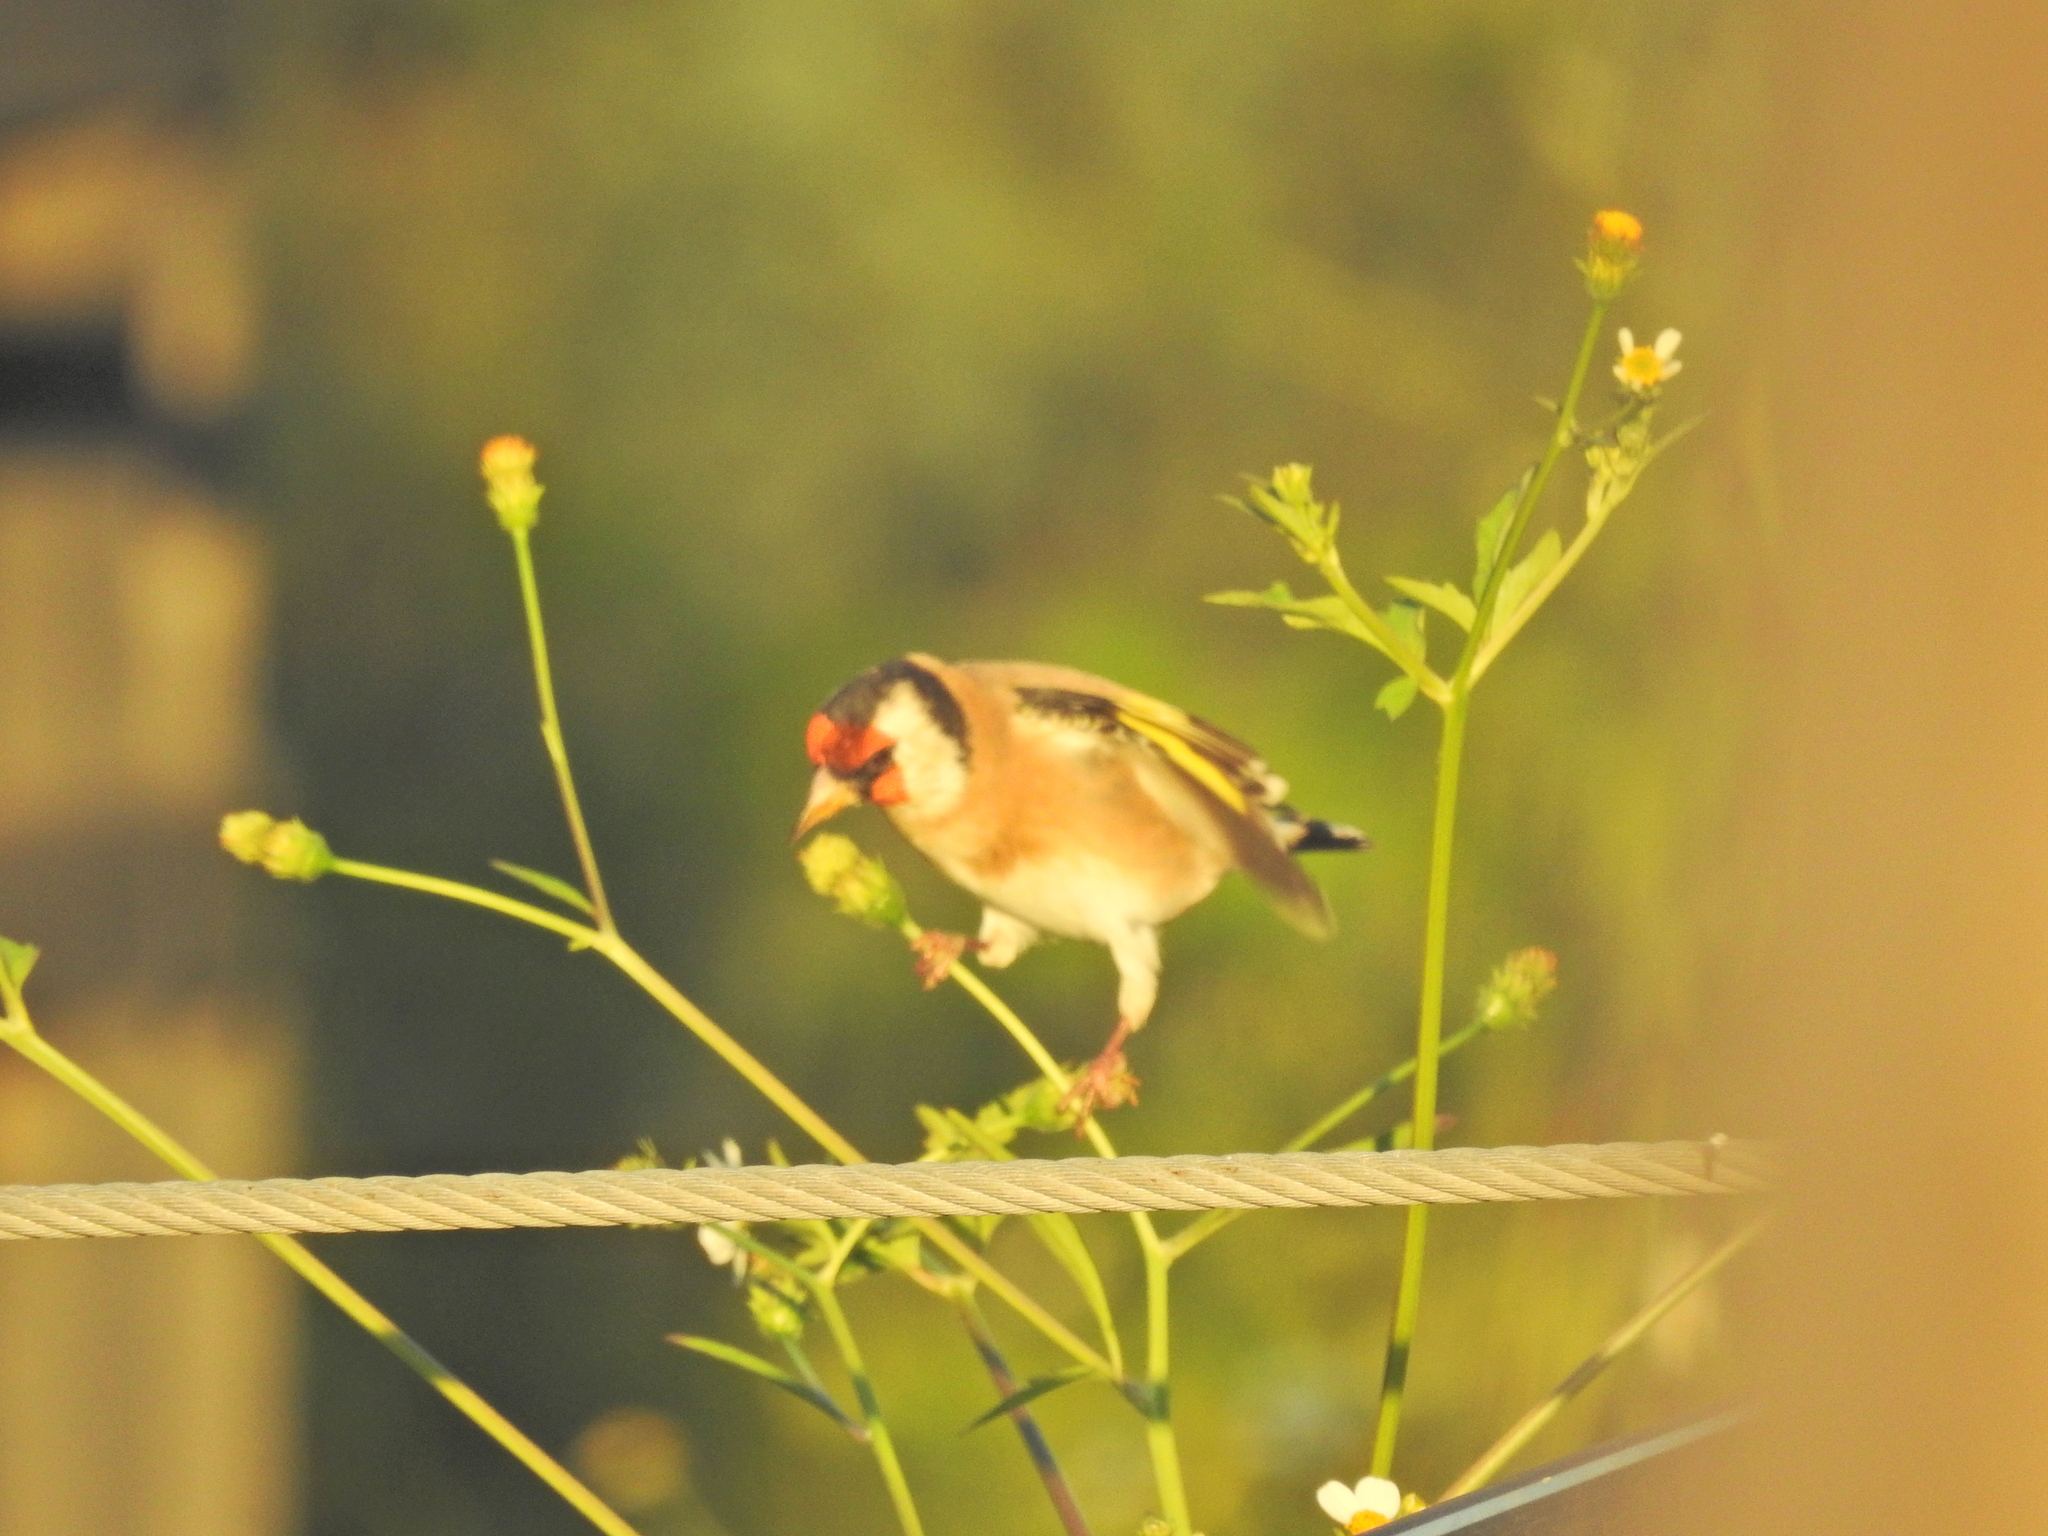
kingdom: Animalia
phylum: Chordata
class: Aves
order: Passeriformes
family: Fringillidae
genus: Carduelis
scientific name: Carduelis carduelis
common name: European goldfinch
